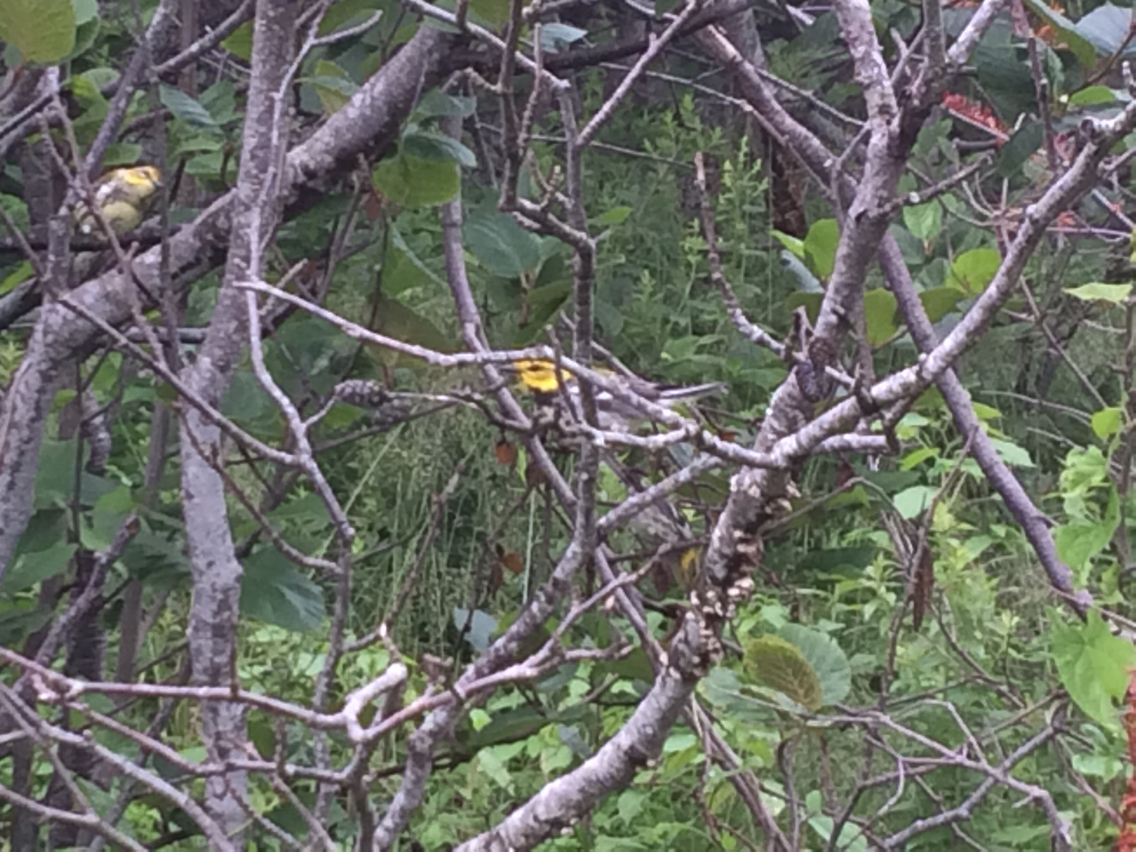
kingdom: Animalia
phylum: Chordata
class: Aves
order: Passeriformes
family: Parulidae
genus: Setophaga
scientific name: Setophaga virens
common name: Black-throated green warbler
